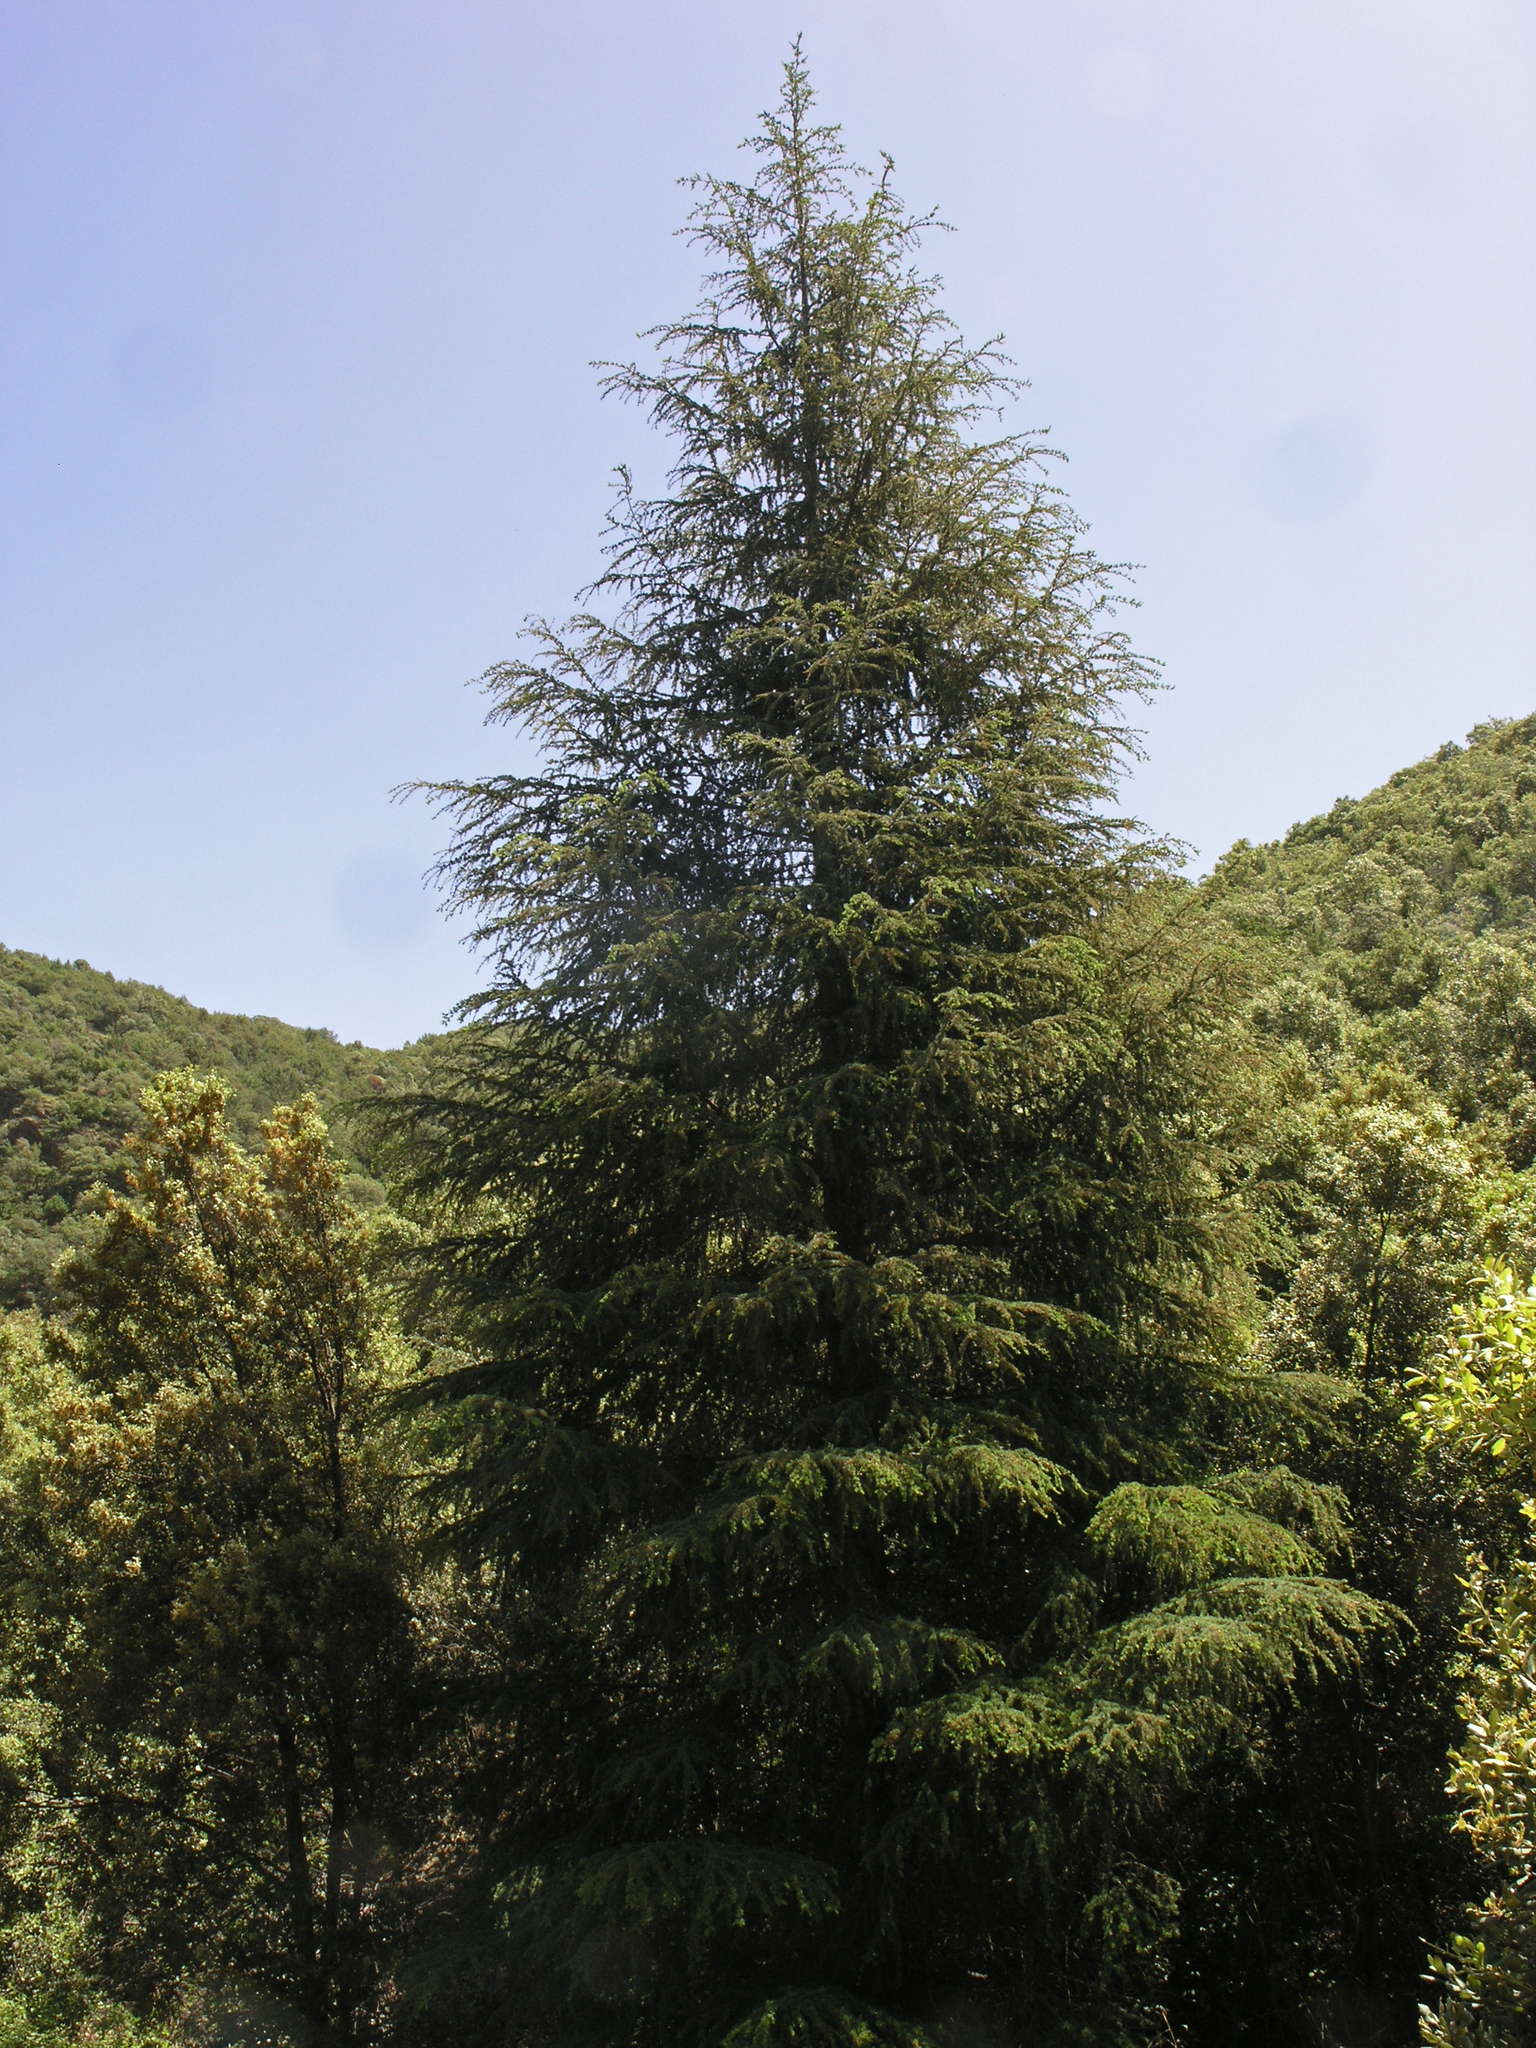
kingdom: Plantae
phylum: Tracheophyta
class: Pinopsida
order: Pinales
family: Pinaceae
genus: Cedrus
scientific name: Cedrus atlantica
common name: Atlas cedar
